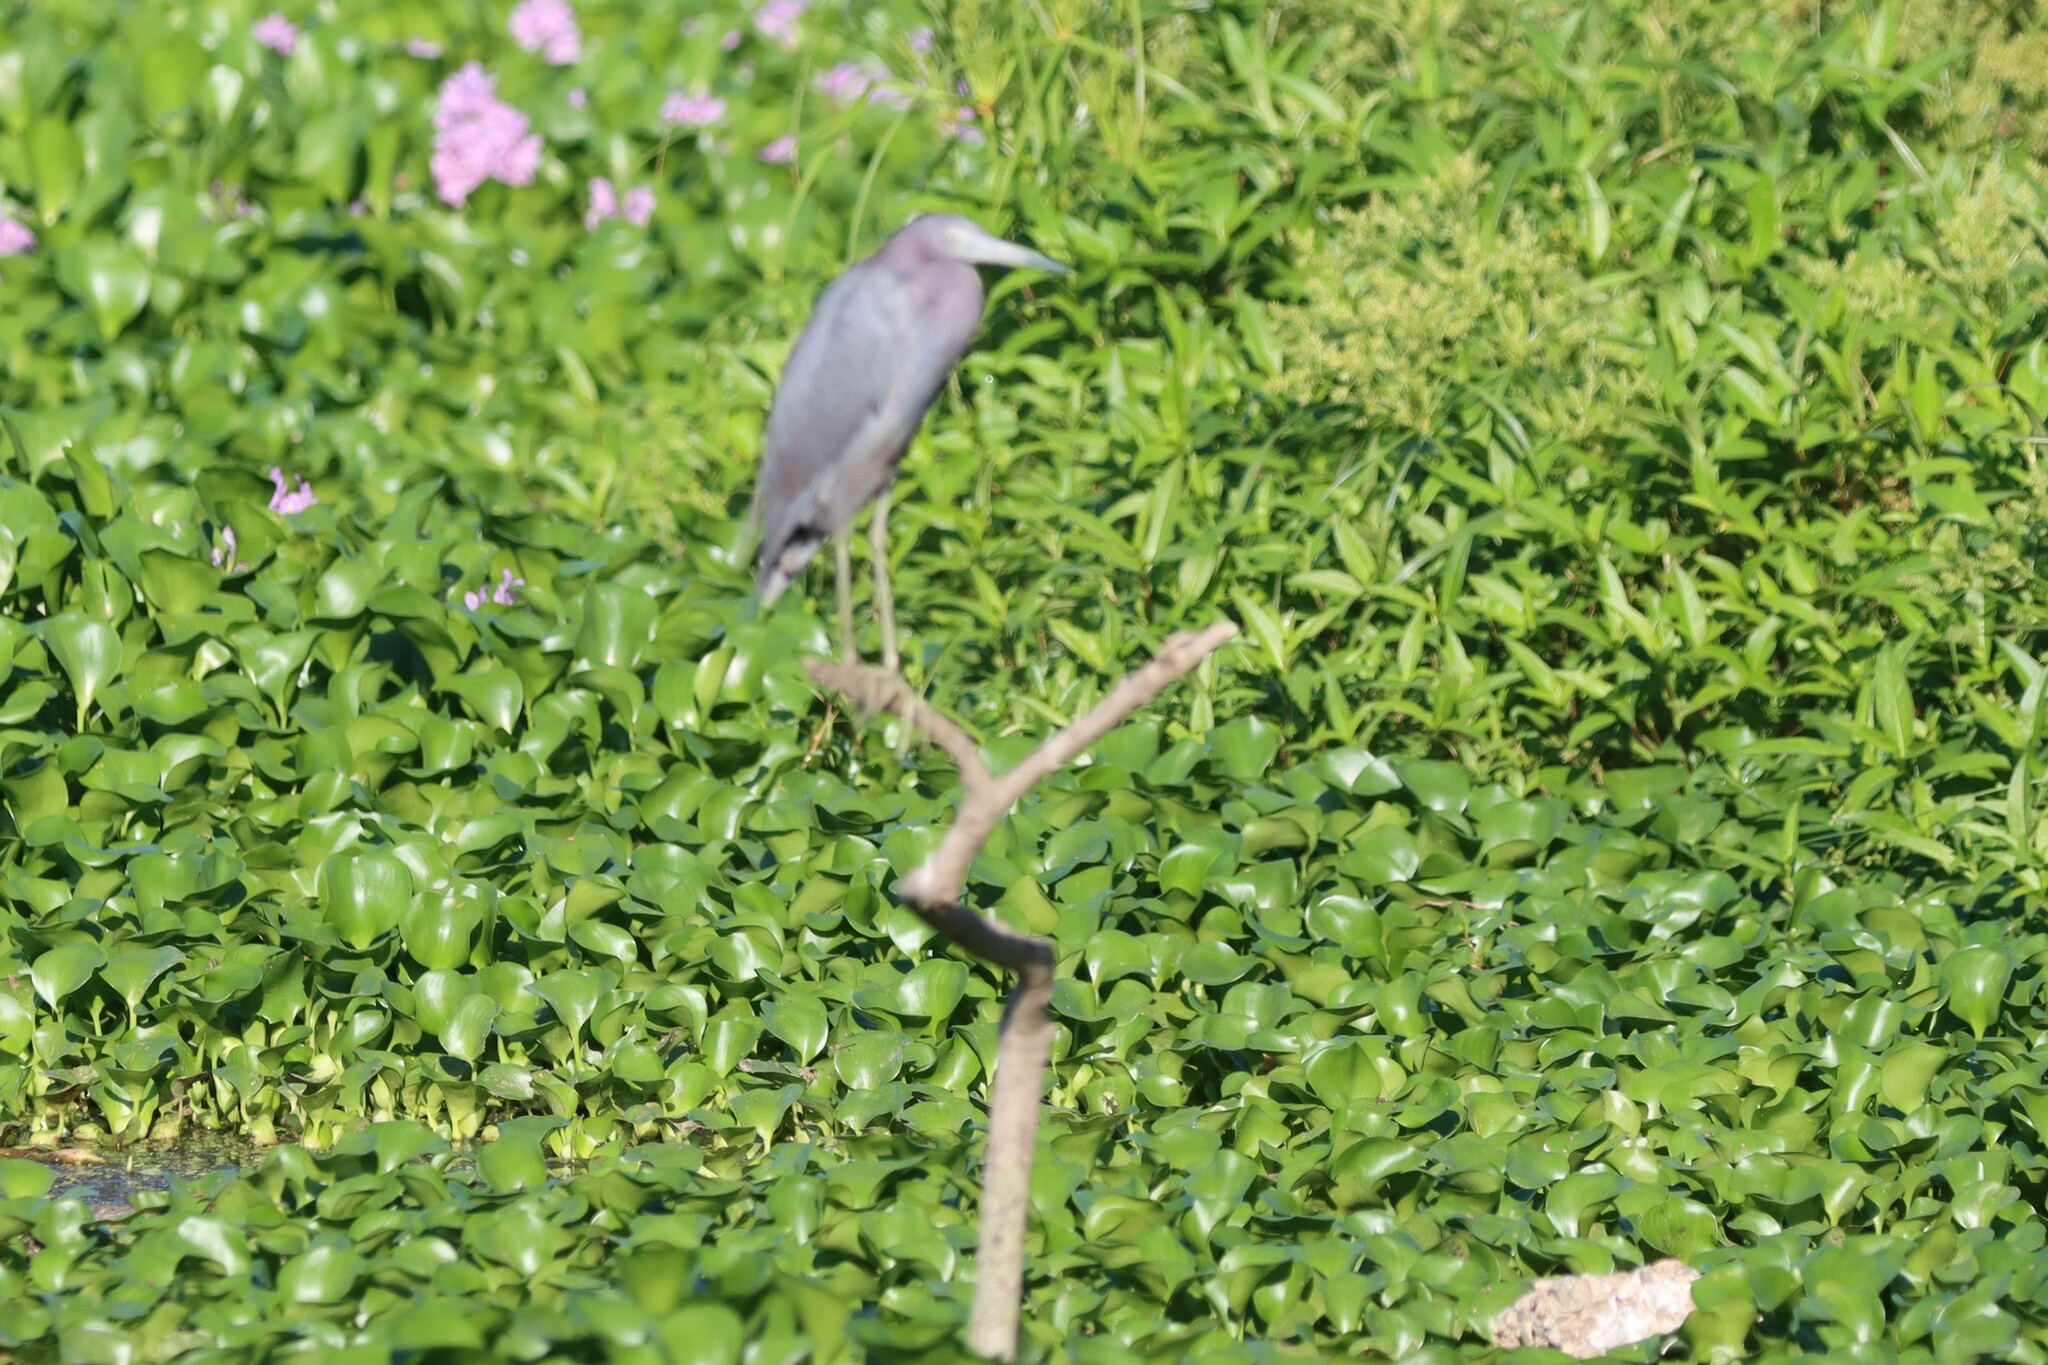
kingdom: Animalia
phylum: Chordata
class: Aves
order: Pelecaniformes
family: Ardeidae
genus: Egretta
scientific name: Egretta caerulea
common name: Little blue heron
